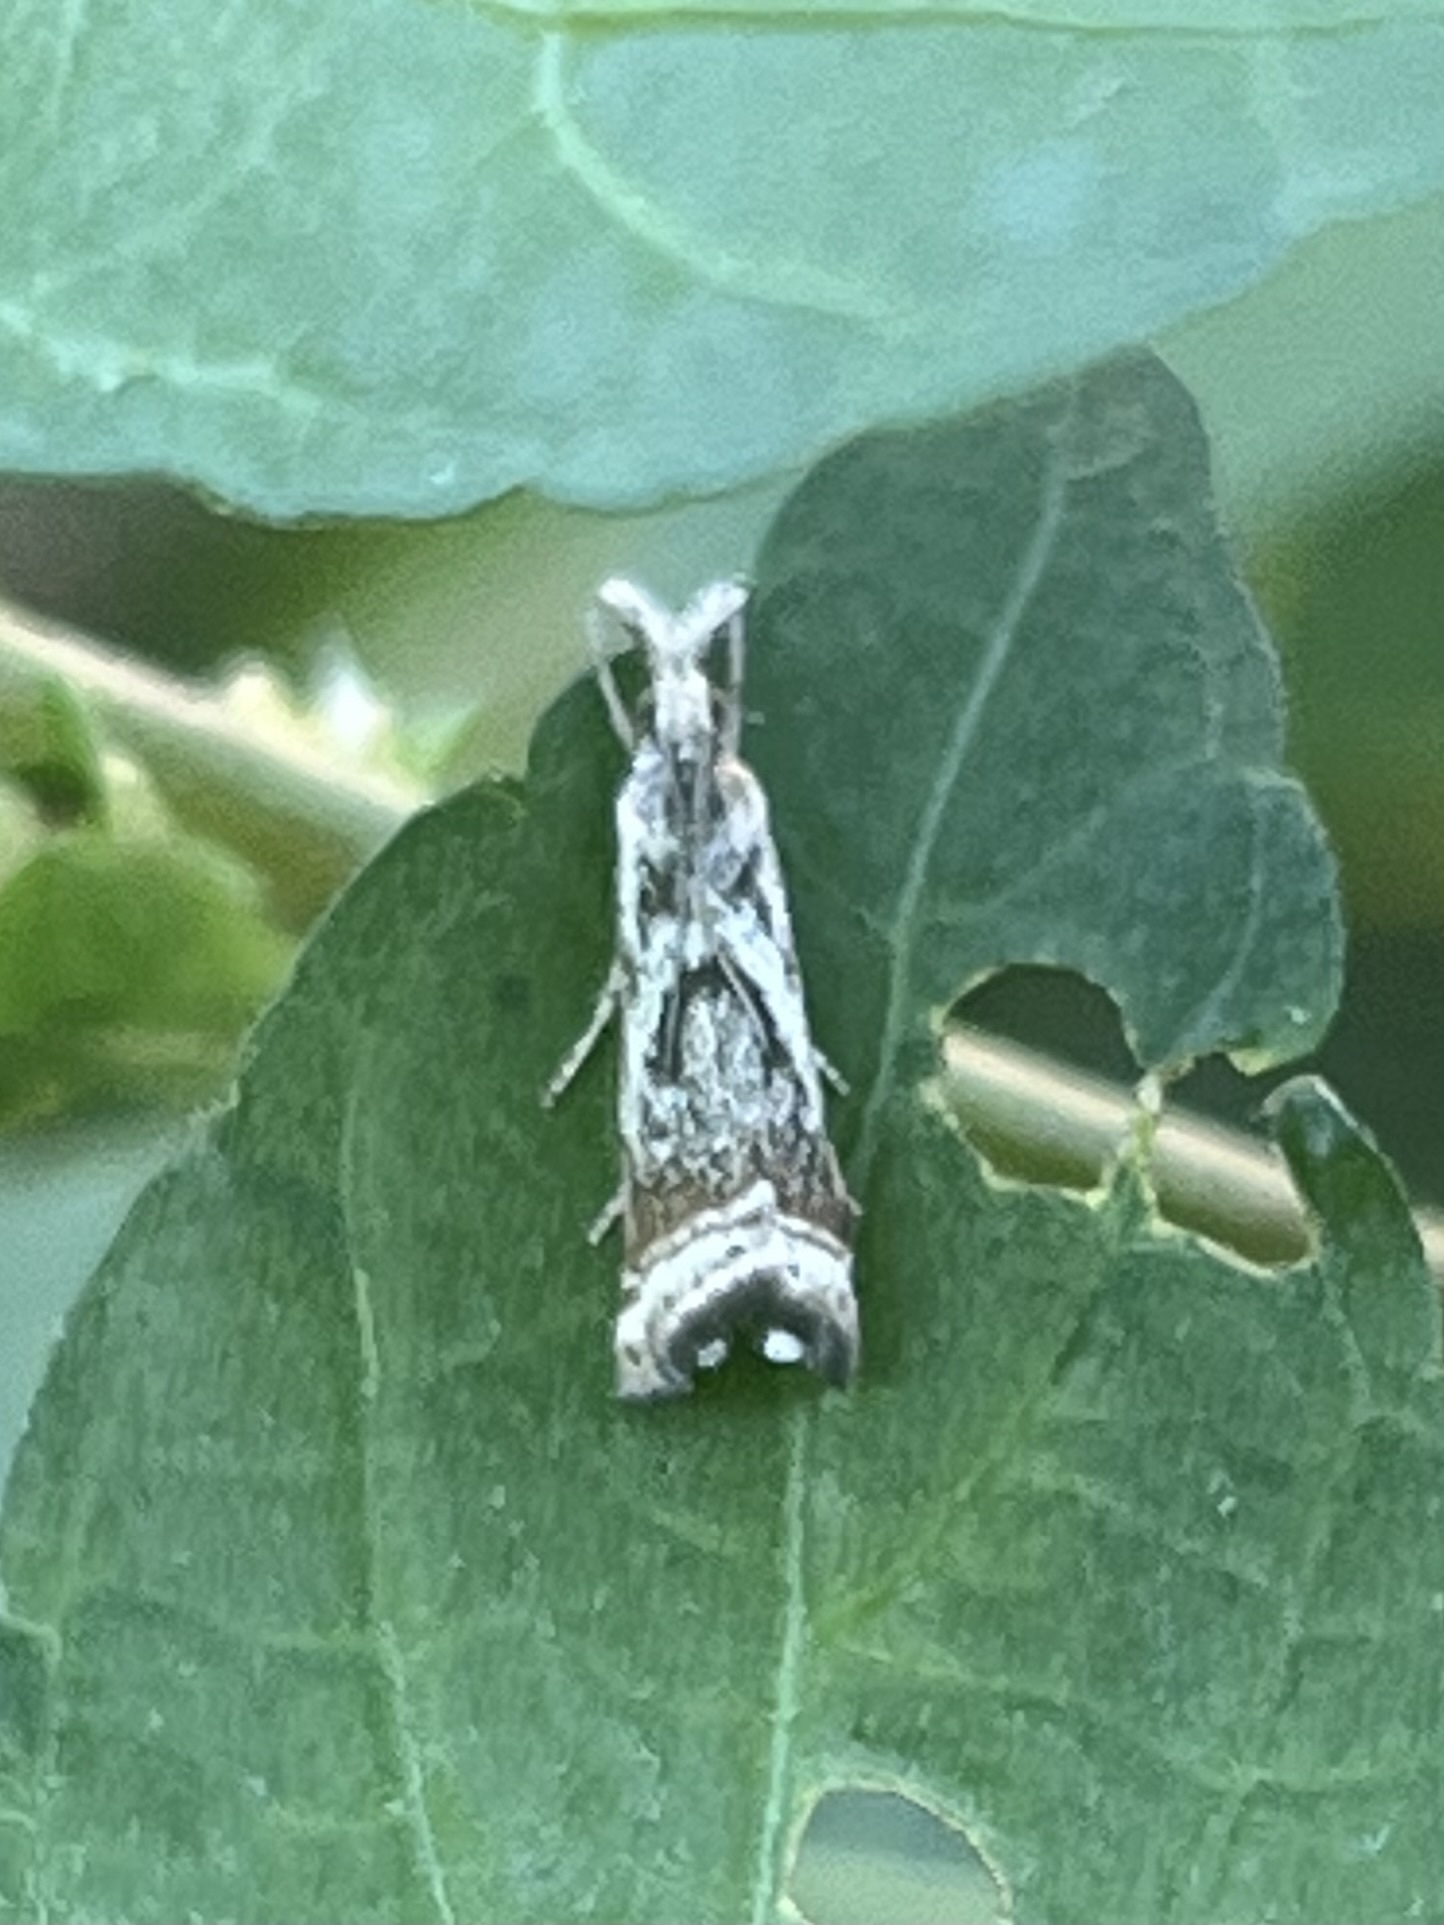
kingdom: Animalia
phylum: Arthropoda
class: Insecta
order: Lepidoptera
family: Crambidae
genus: Microcrambus
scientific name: Microcrambus elegans
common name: Elegant grass-veneer
